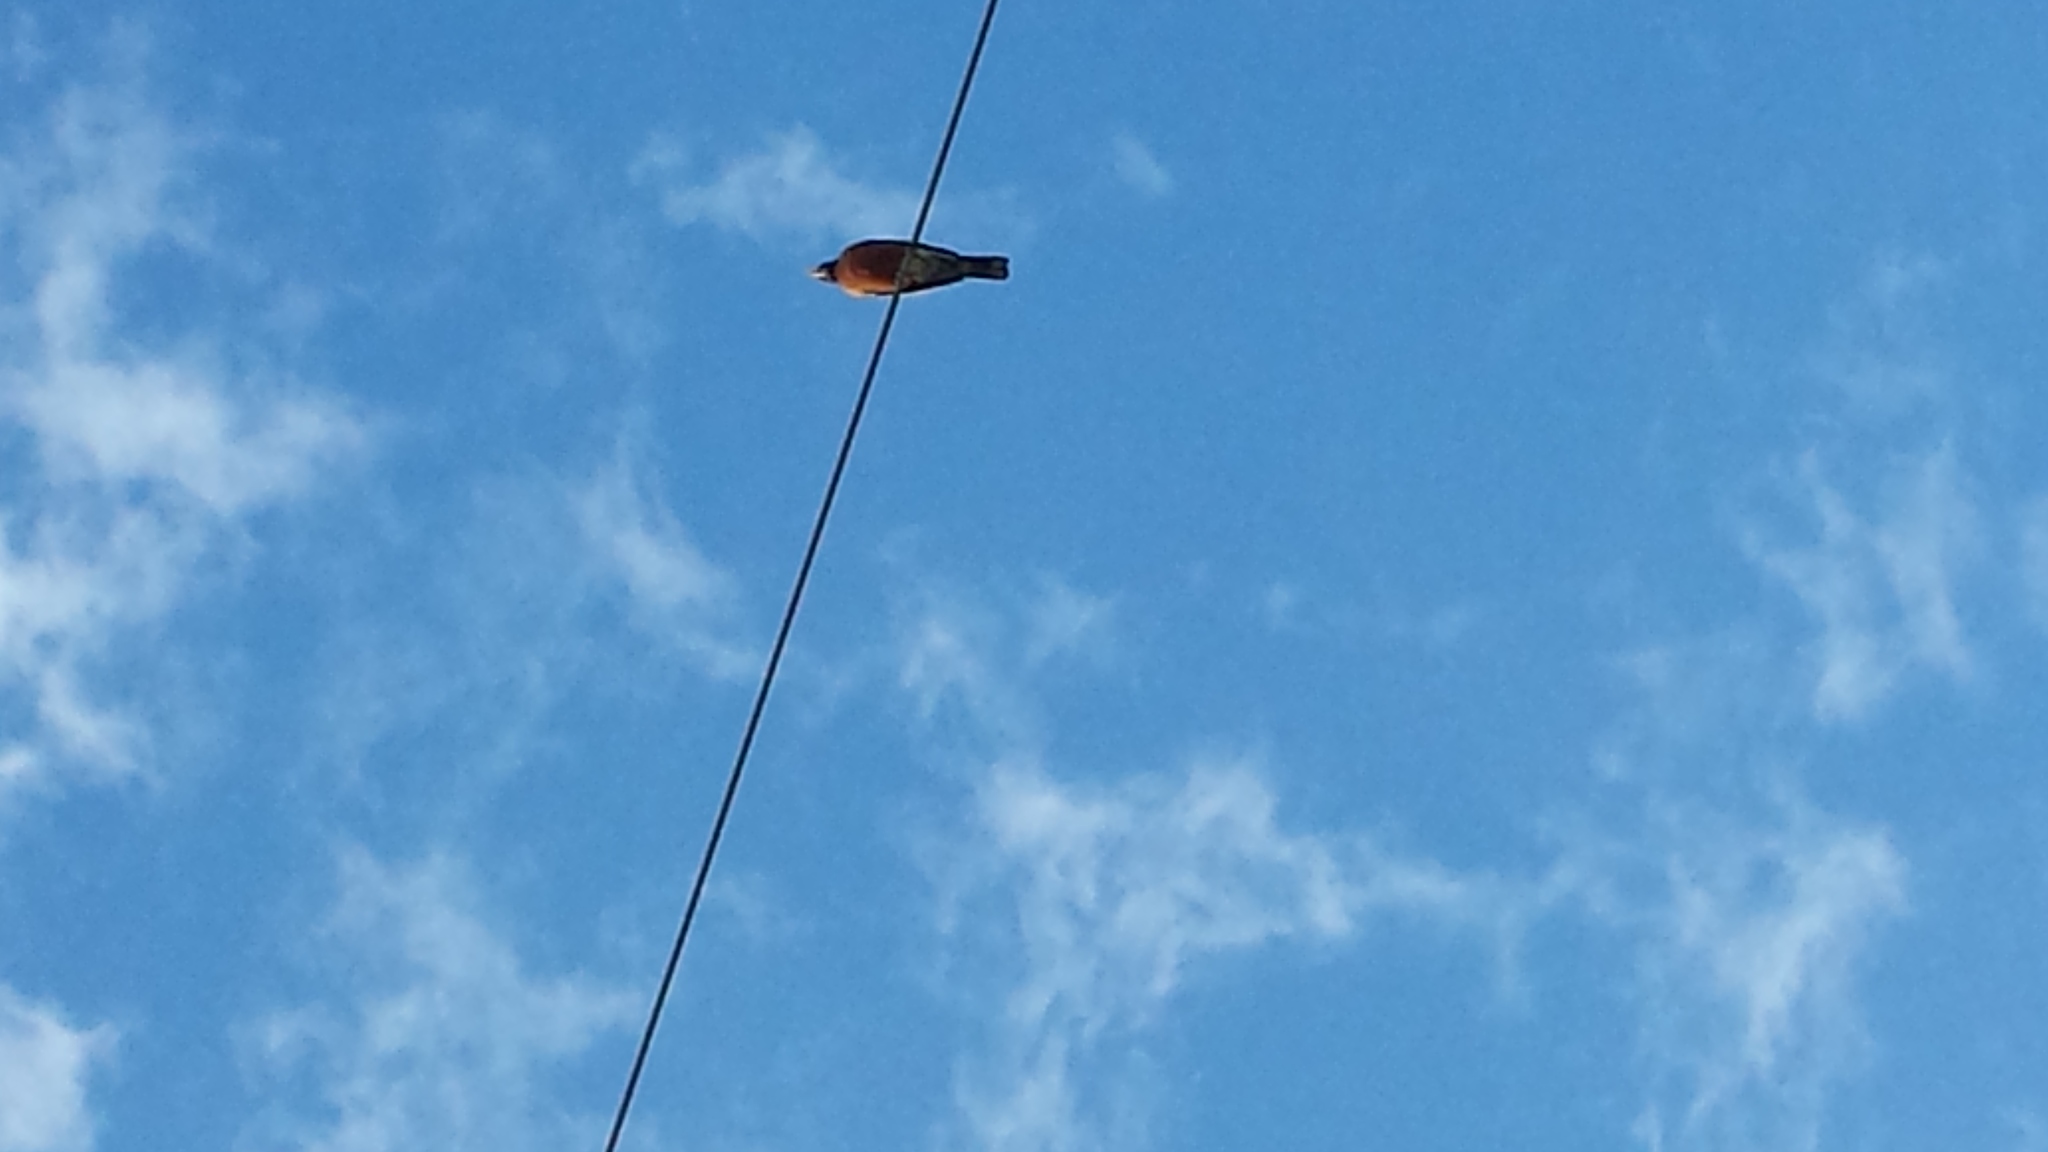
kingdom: Animalia
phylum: Chordata
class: Aves
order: Passeriformes
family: Turdidae
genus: Turdus
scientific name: Turdus migratorius
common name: American robin
